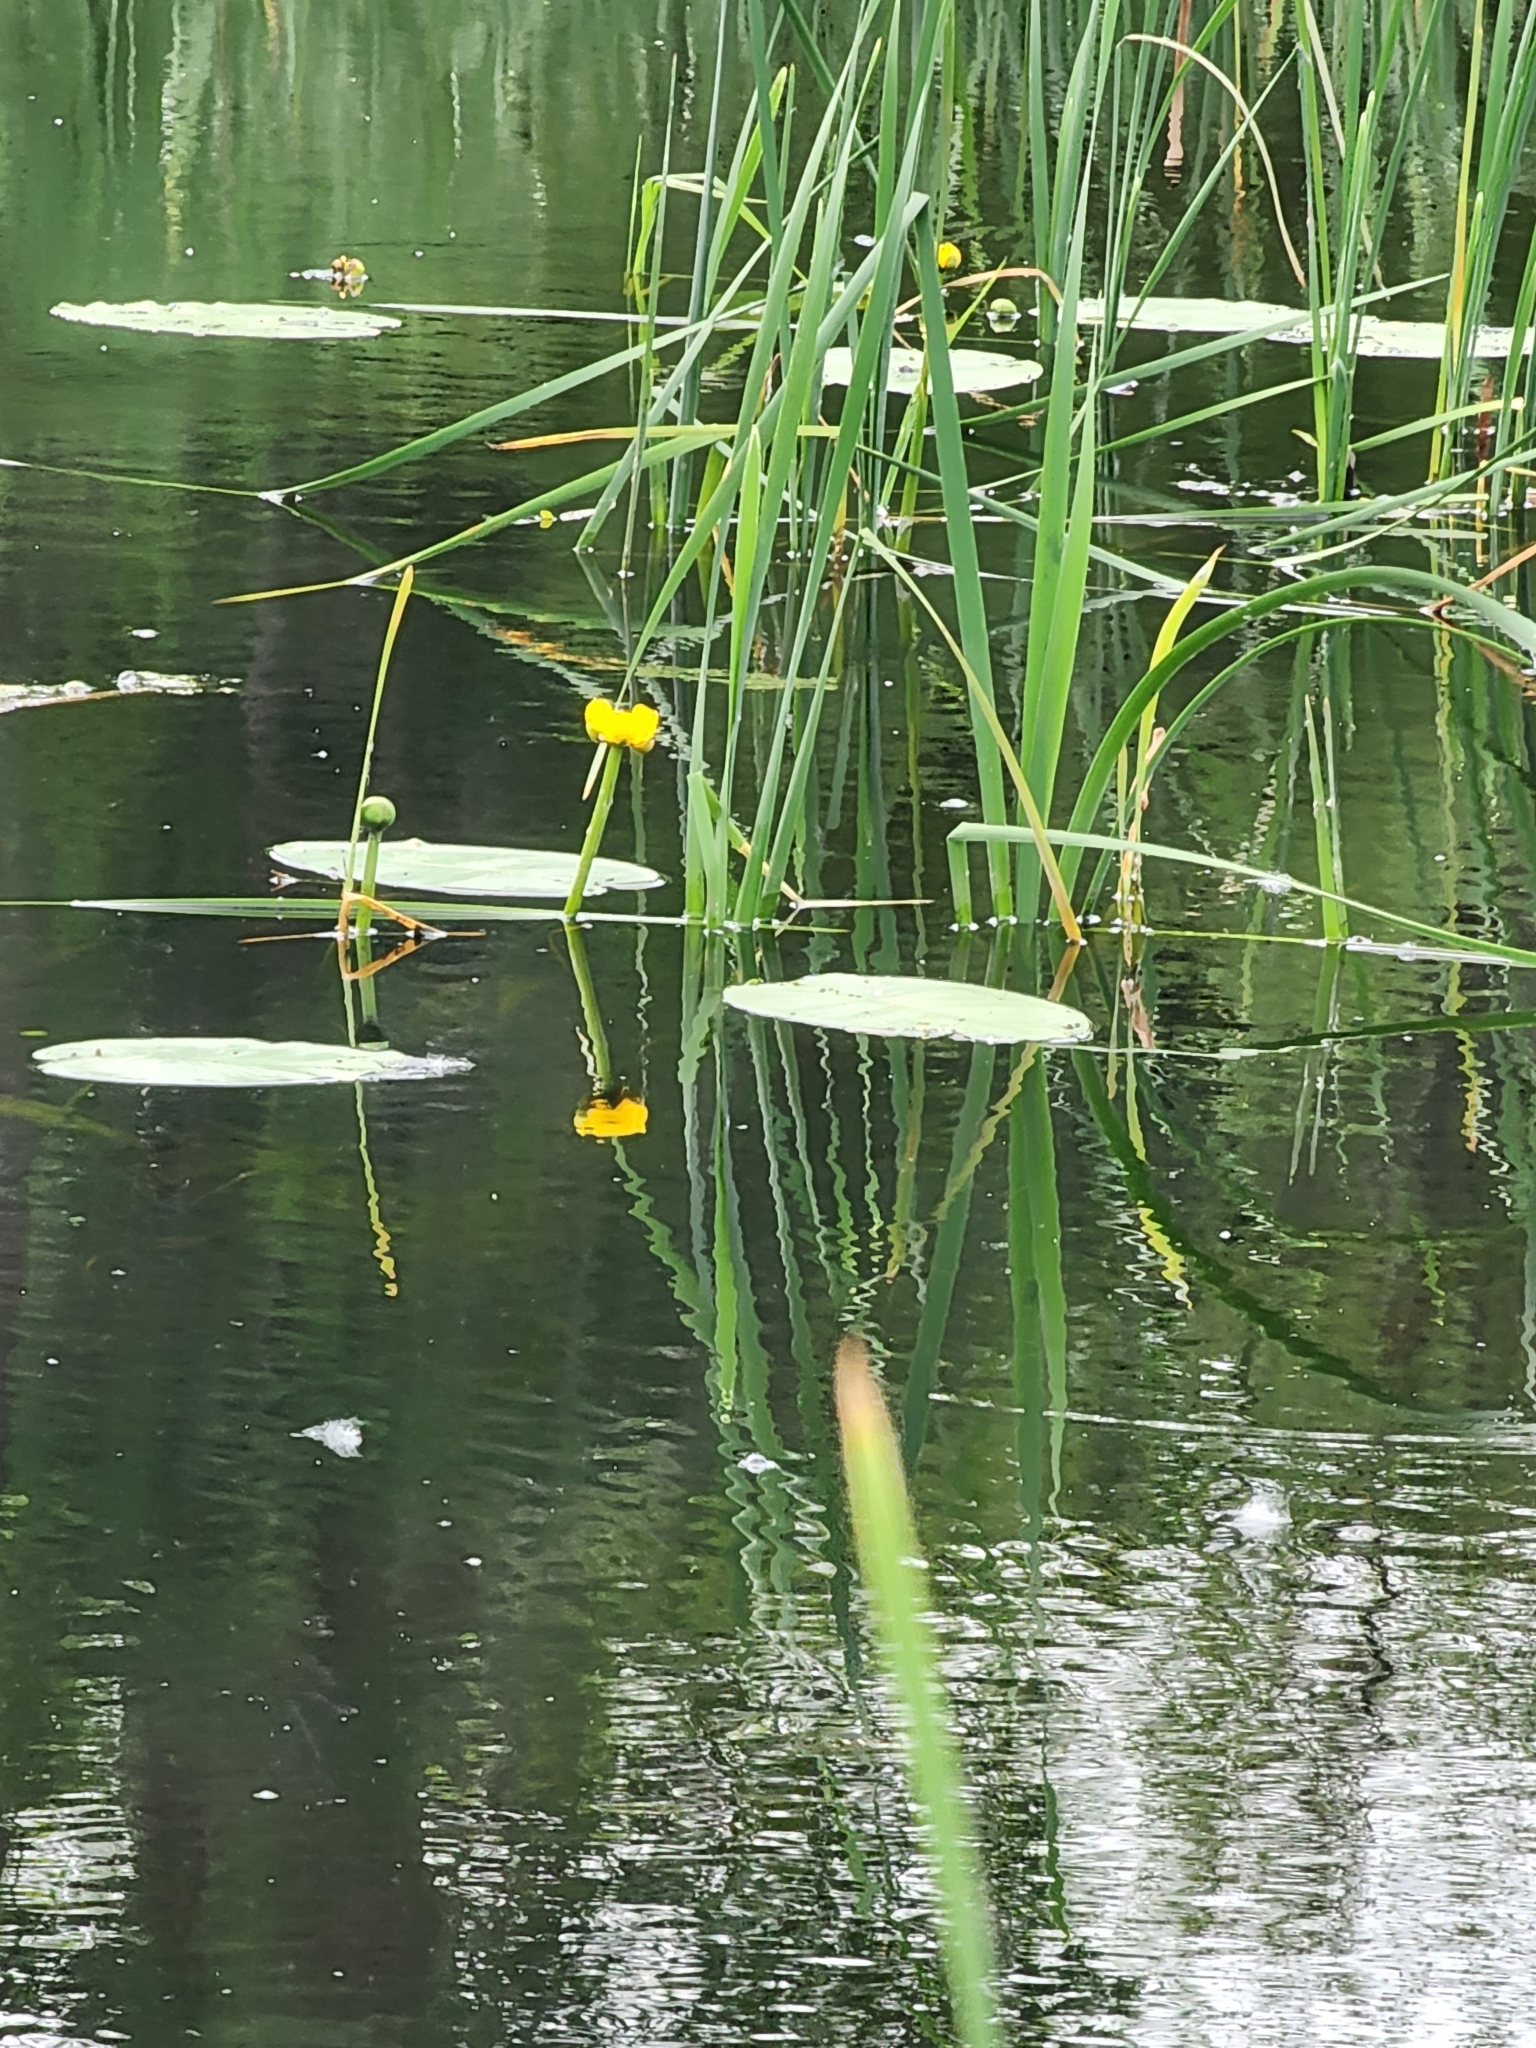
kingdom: Plantae
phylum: Tracheophyta
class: Magnoliopsida
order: Nymphaeales
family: Nymphaeaceae
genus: Nuphar
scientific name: Nuphar variegata
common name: Beaver-root
